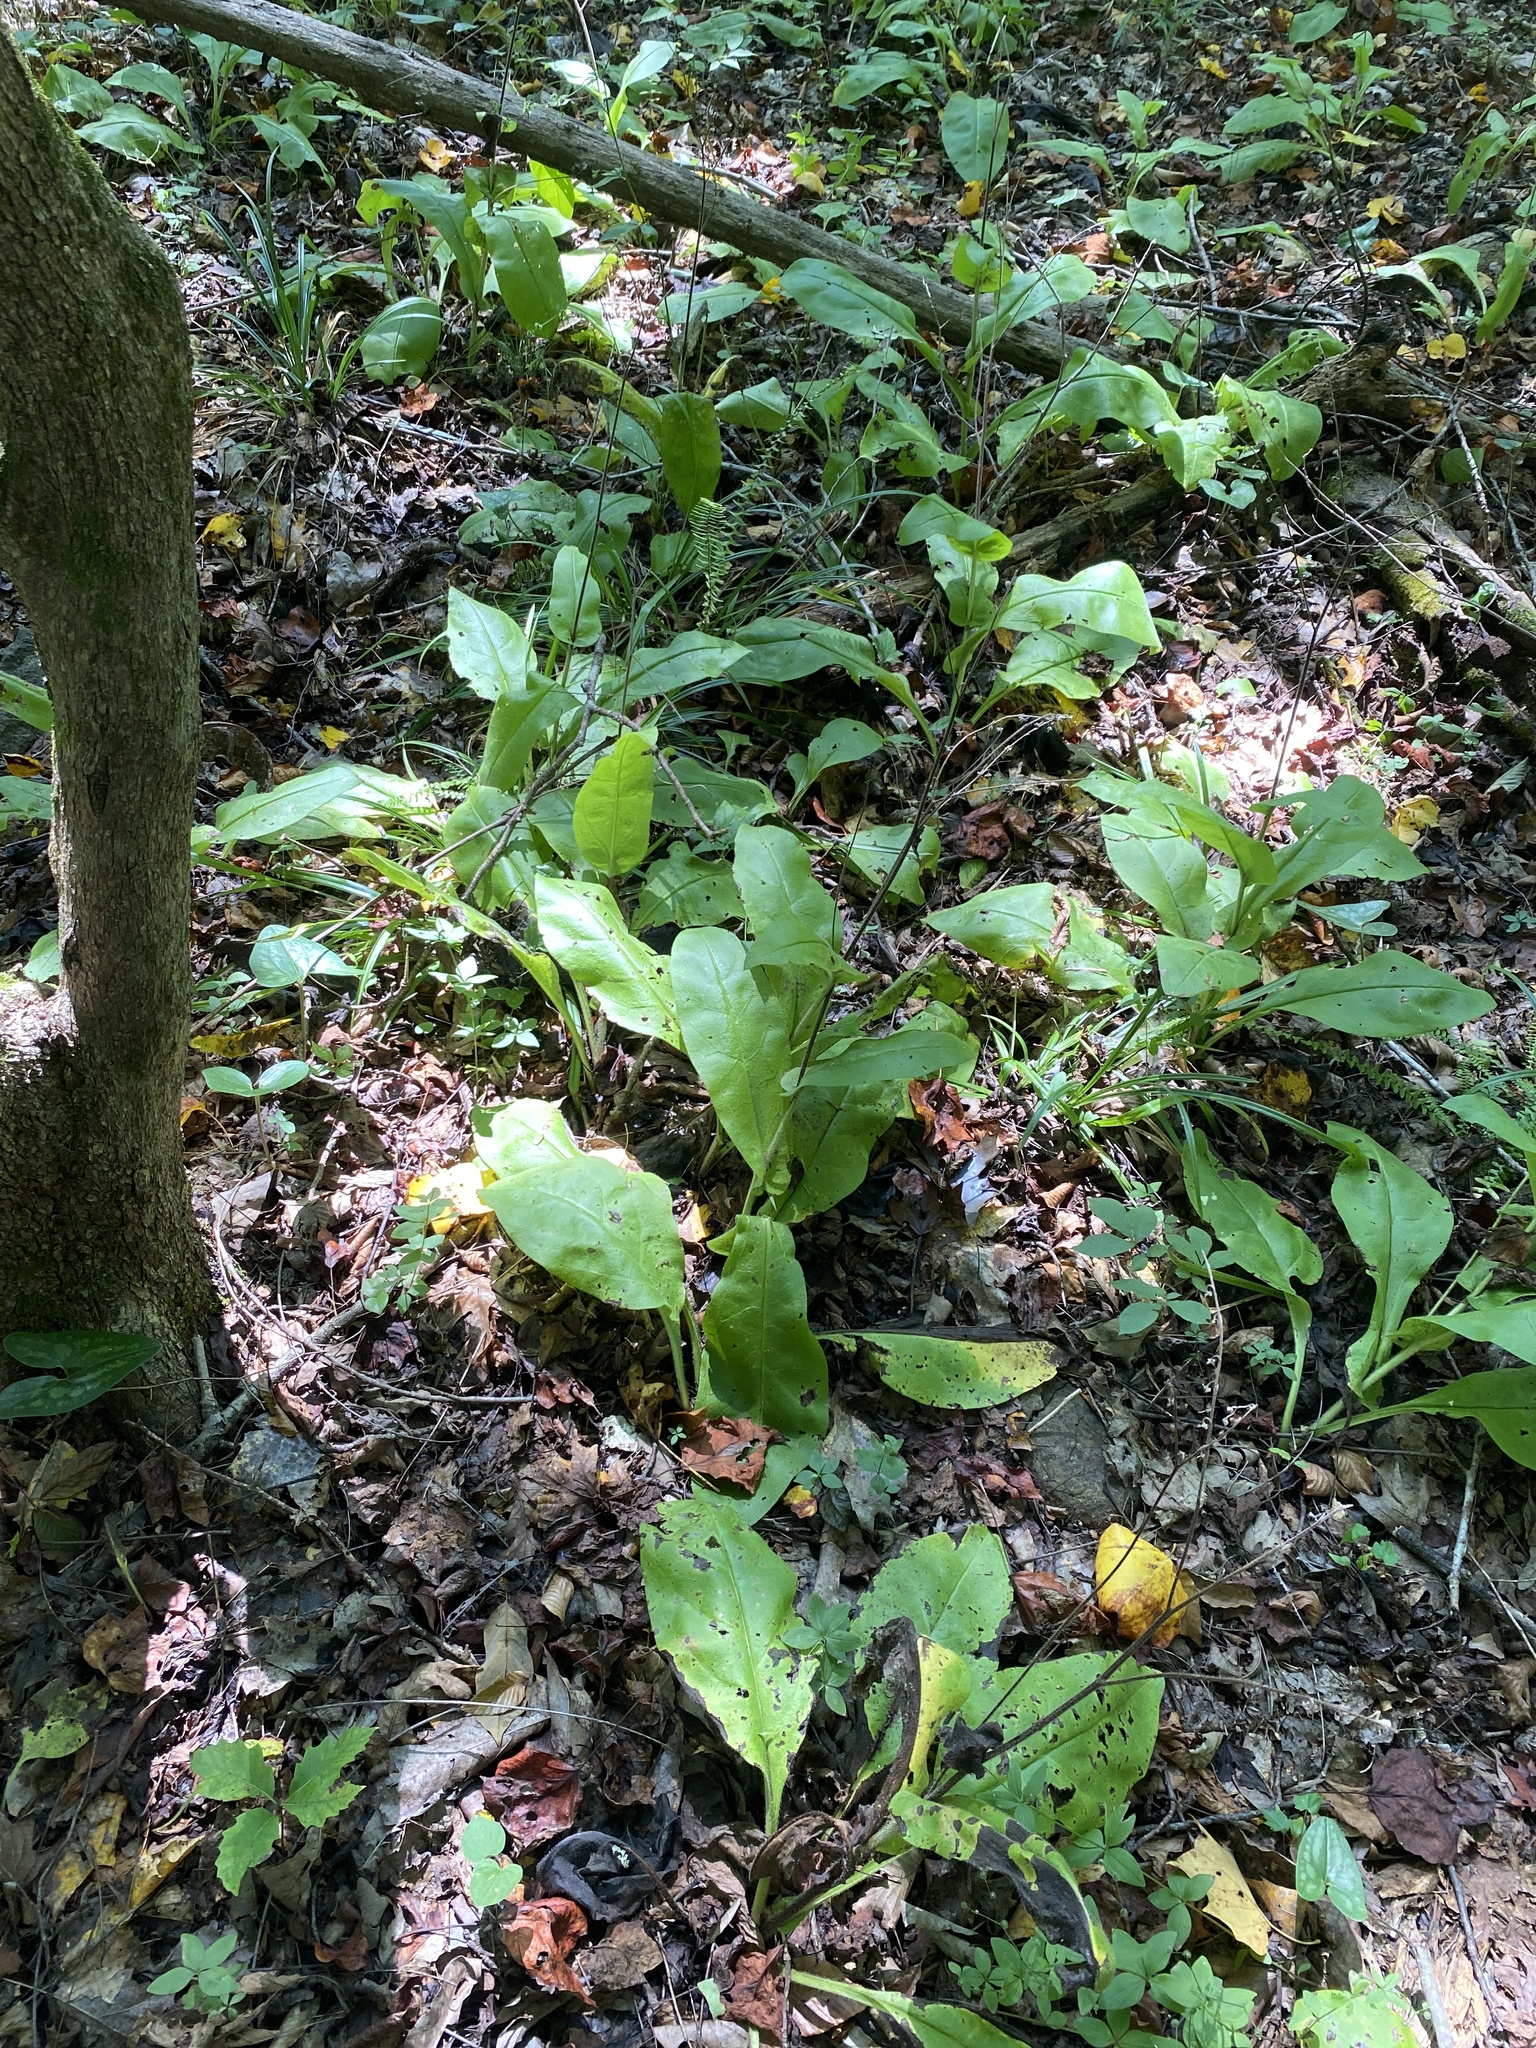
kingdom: Plantae
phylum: Tracheophyta
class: Magnoliopsida
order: Boraginales
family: Boraginaceae
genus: Andersonglossum
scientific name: Andersonglossum virginianum
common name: Wild comfrey
